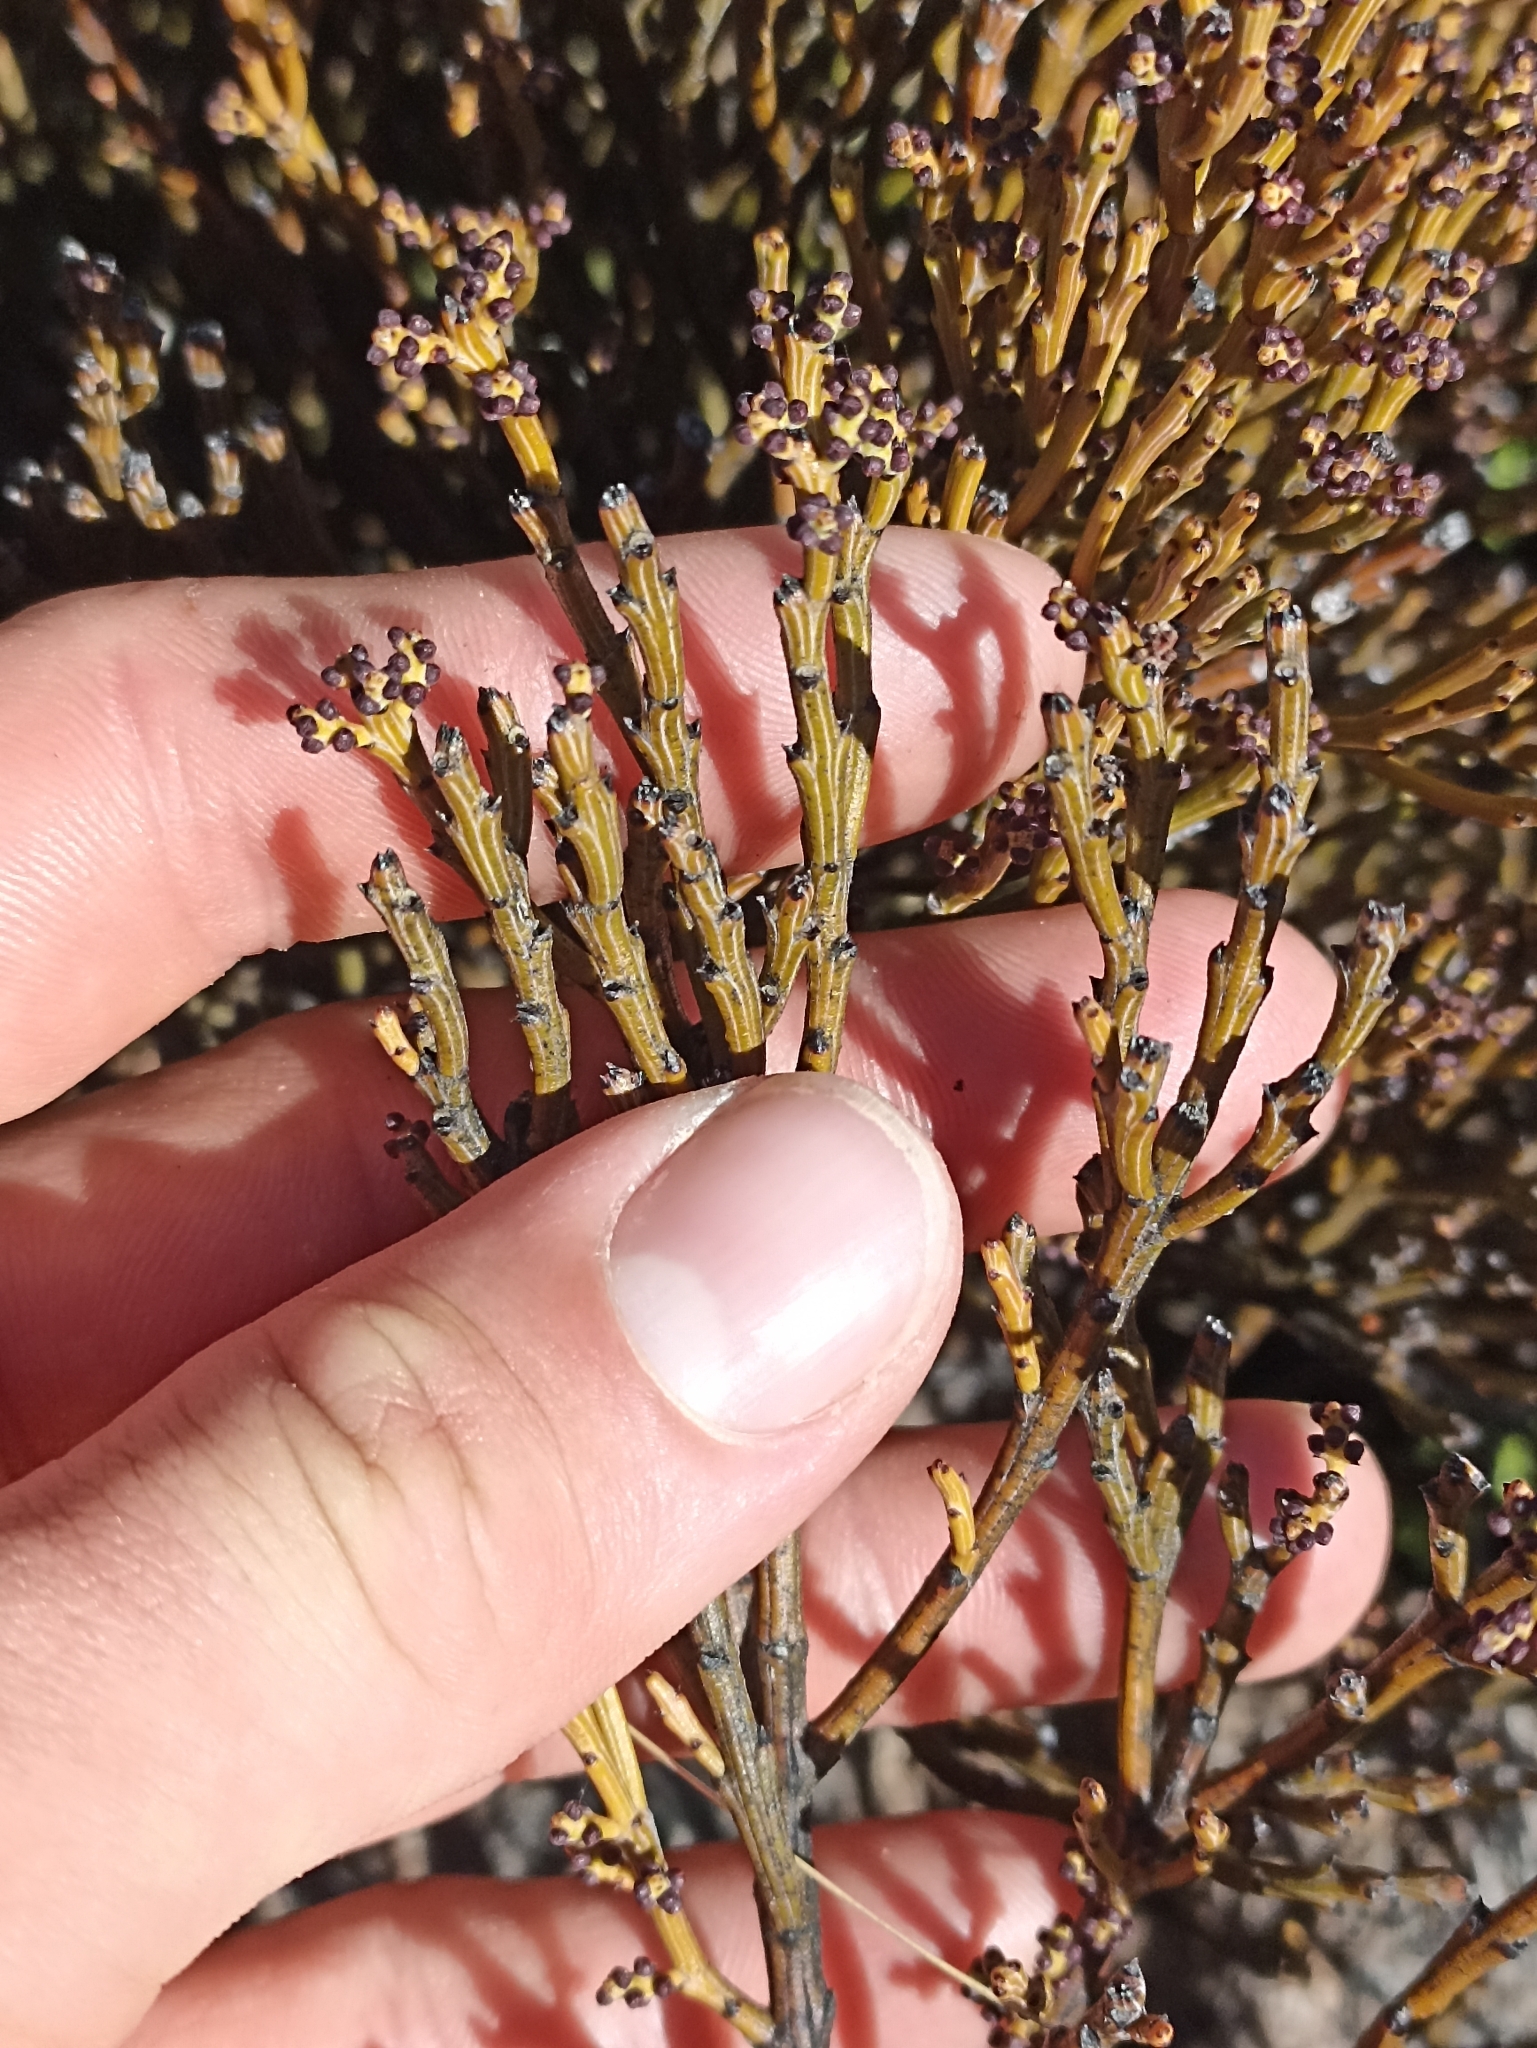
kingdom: Plantae
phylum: Tracheophyta
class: Magnoliopsida
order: Santalales
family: Santalaceae
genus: Exocarpos
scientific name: Exocarpos bidwillii
